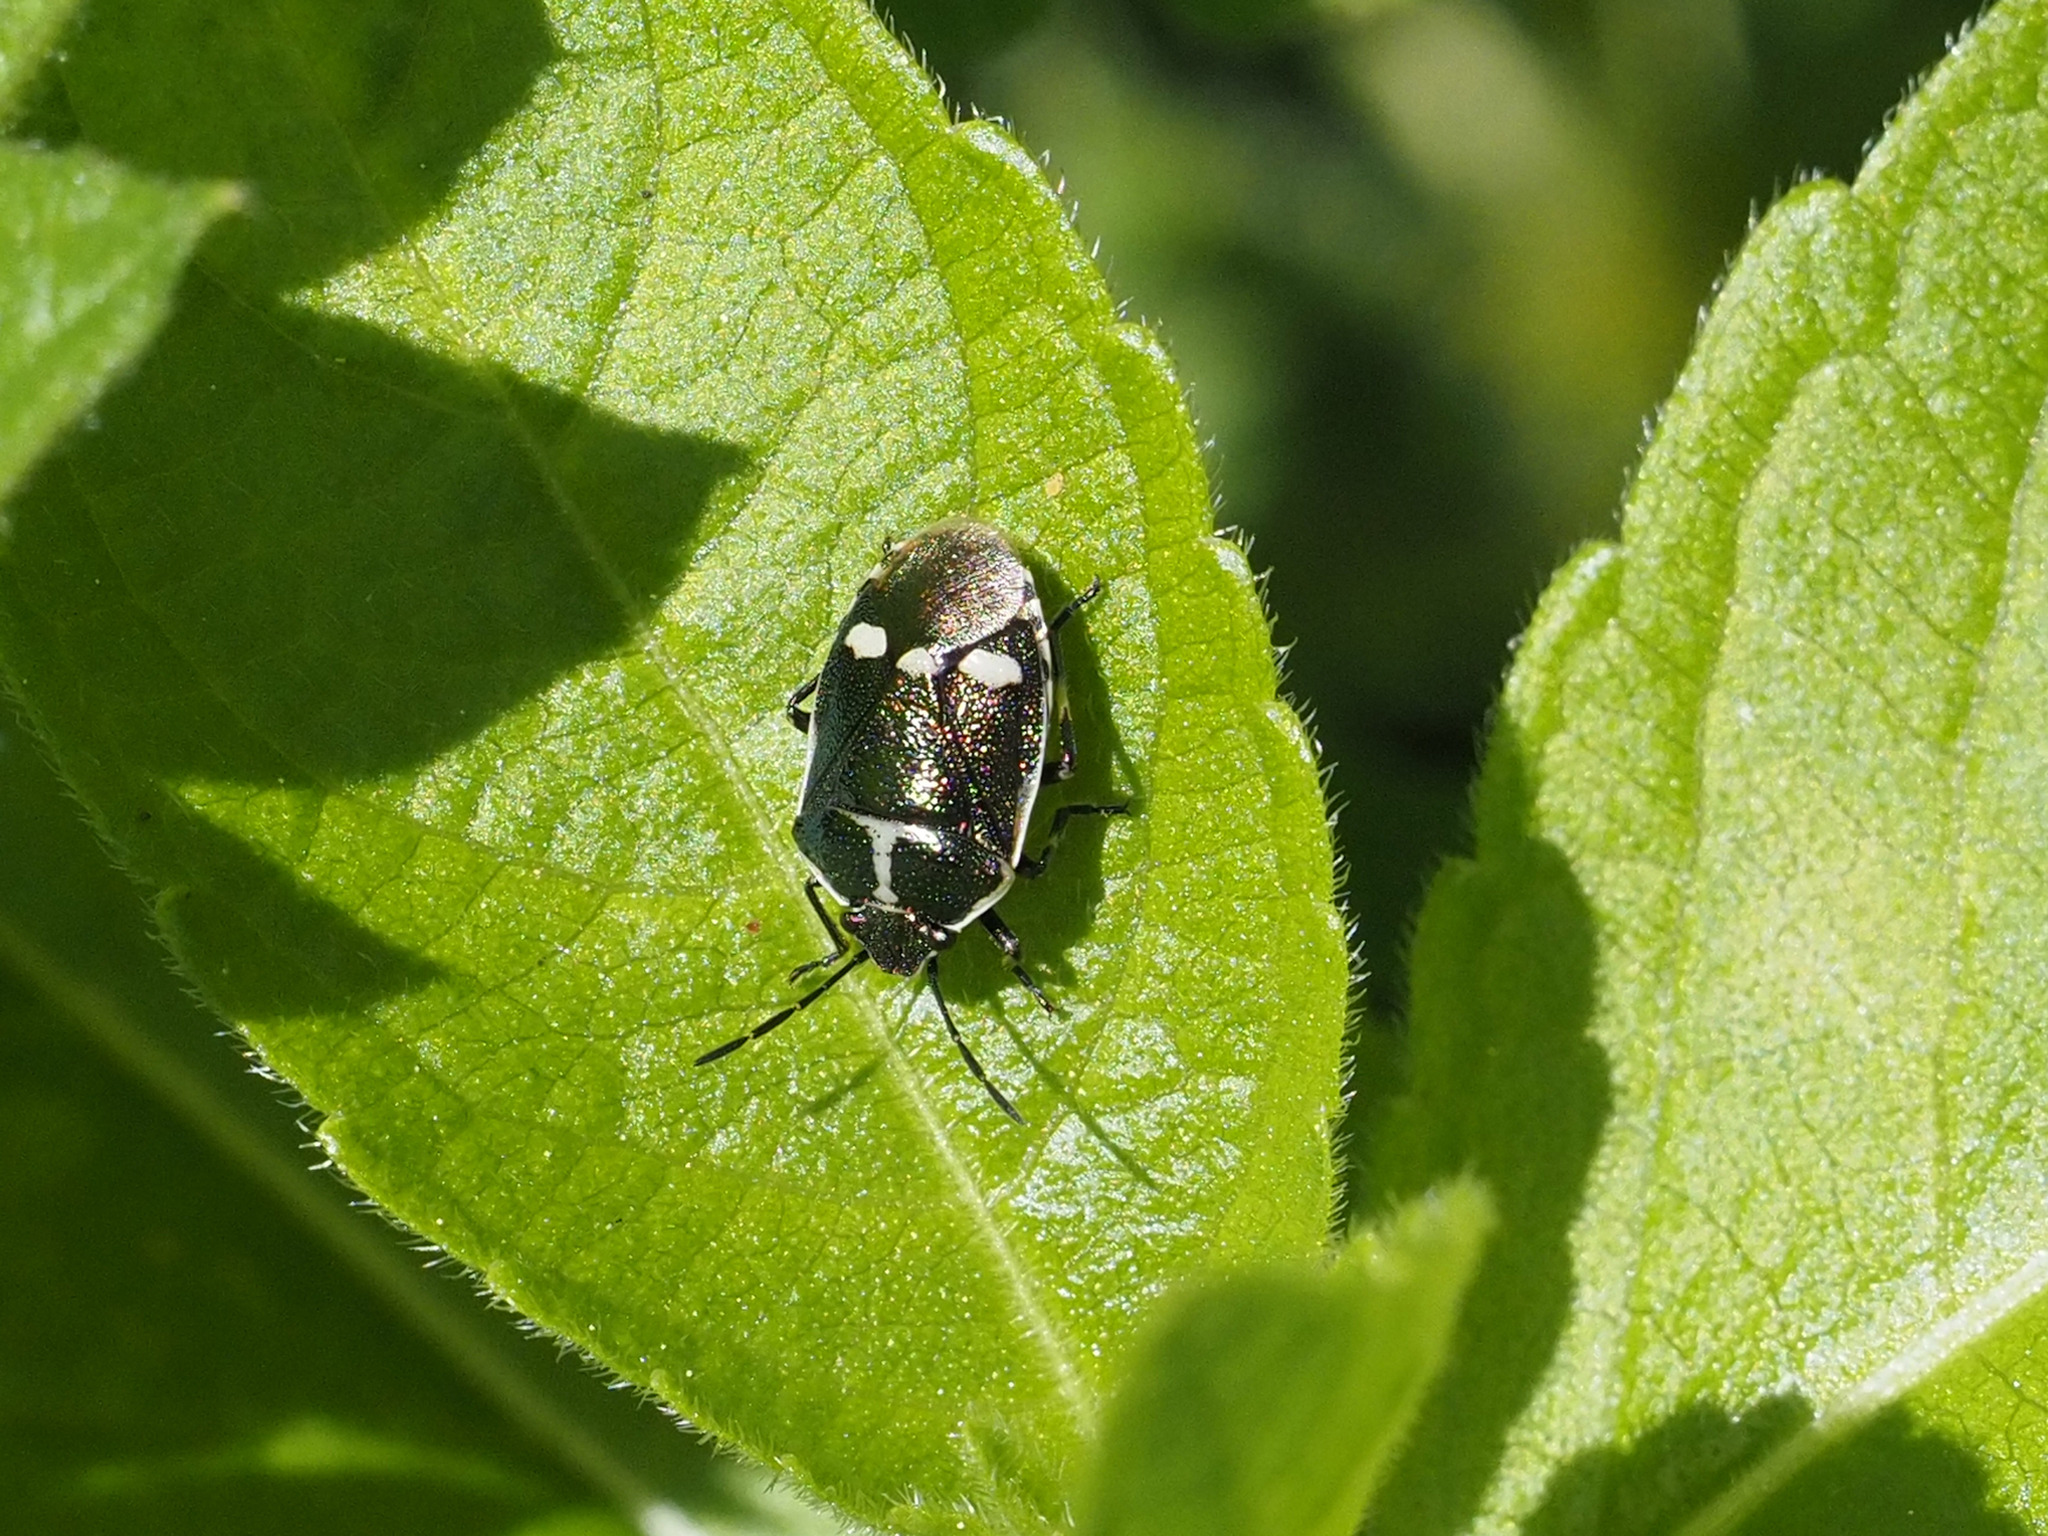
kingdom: Animalia
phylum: Arthropoda
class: Insecta
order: Hemiptera
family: Pentatomidae
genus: Eurydema
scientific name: Eurydema oleracea
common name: Cabbage bug
